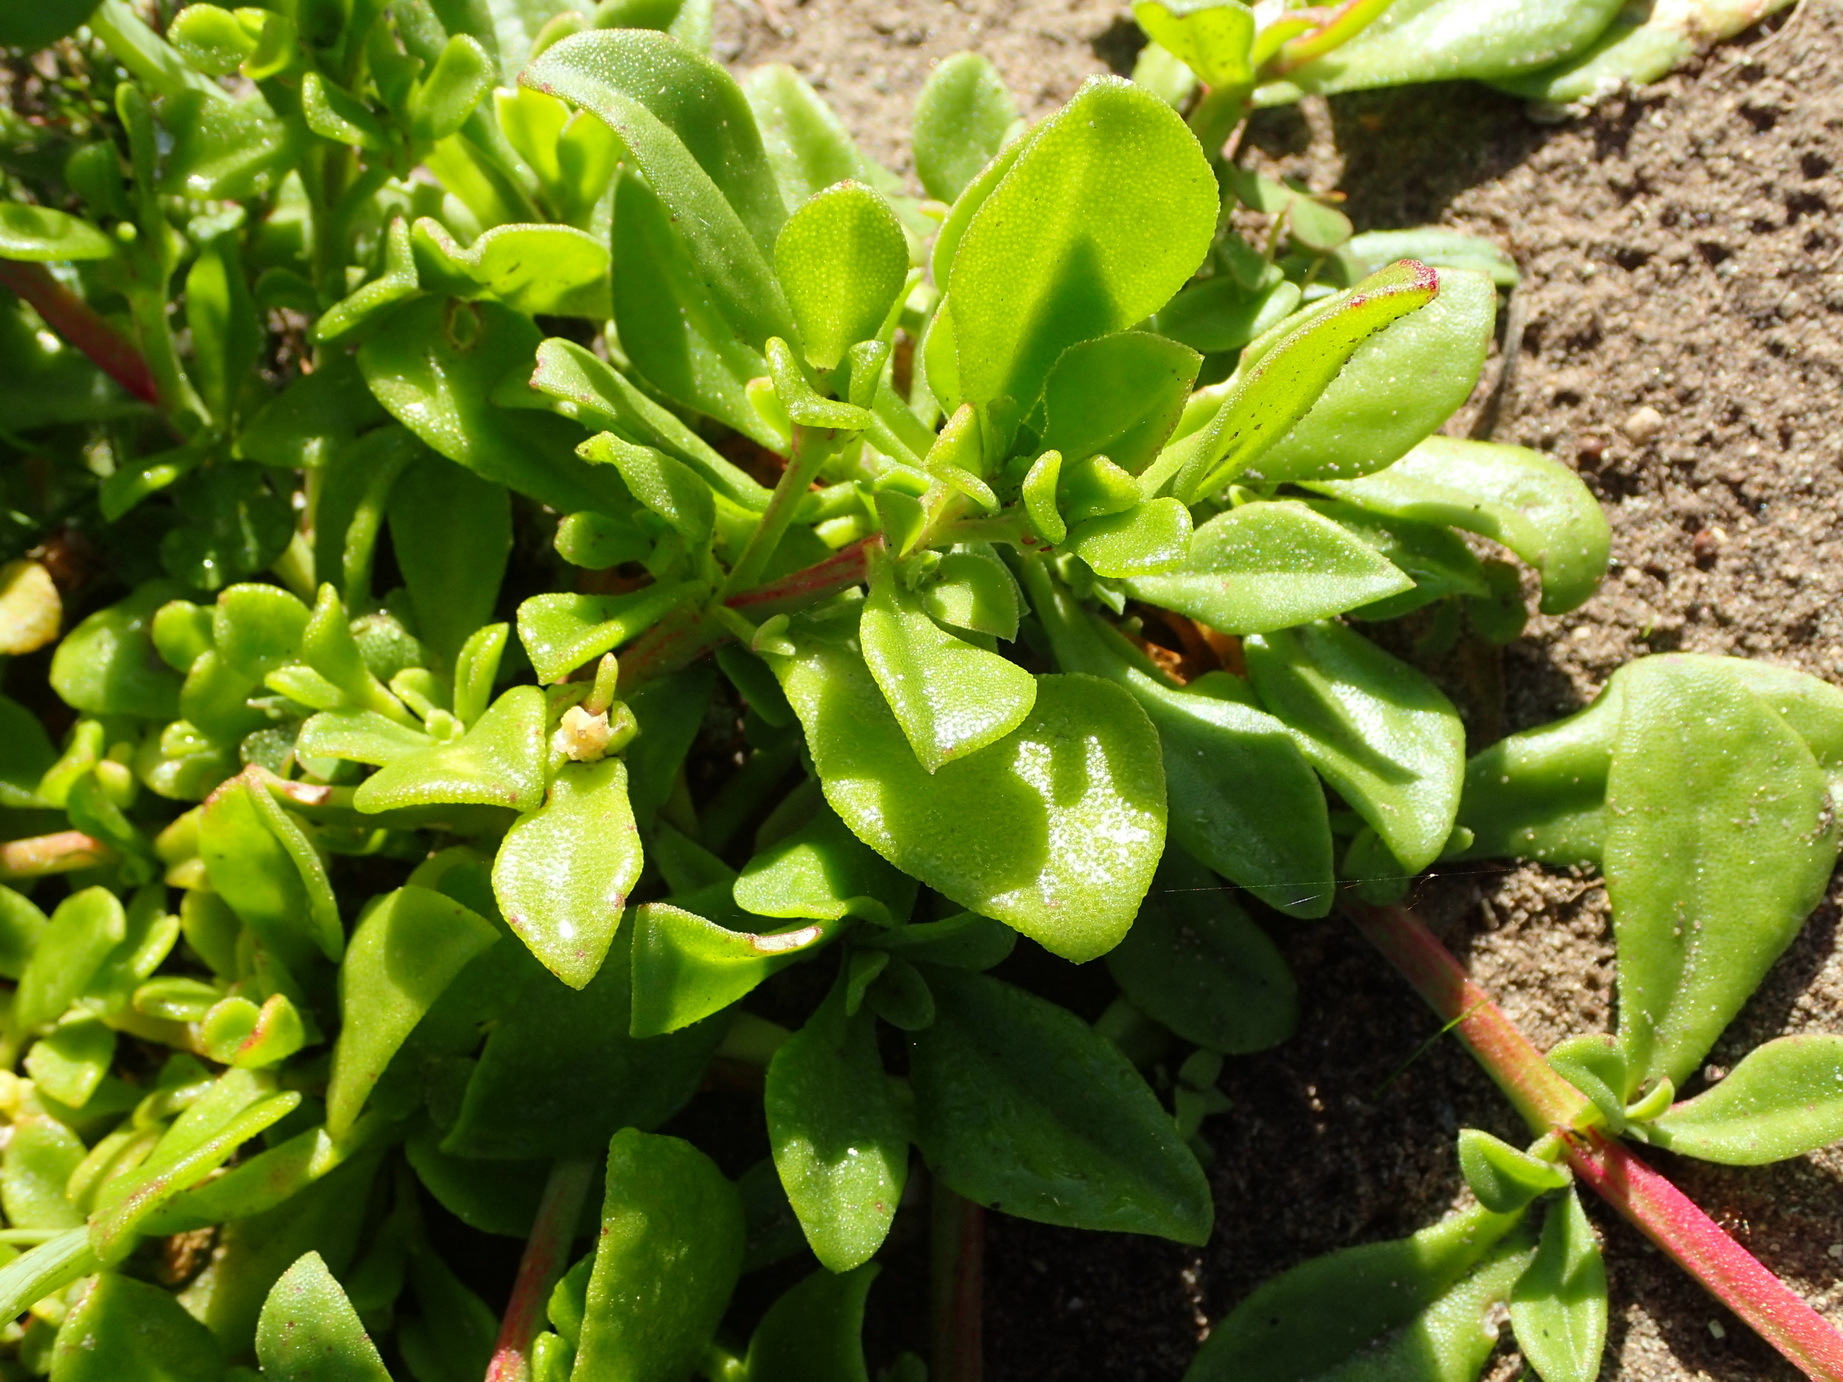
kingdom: Plantae
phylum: Tracheophyta
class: Magnoliopsida
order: Caryophyllales
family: Aizoaceae
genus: Mesembryanthemum
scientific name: Mesembryanthemum aitonis
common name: Angled iceplant
